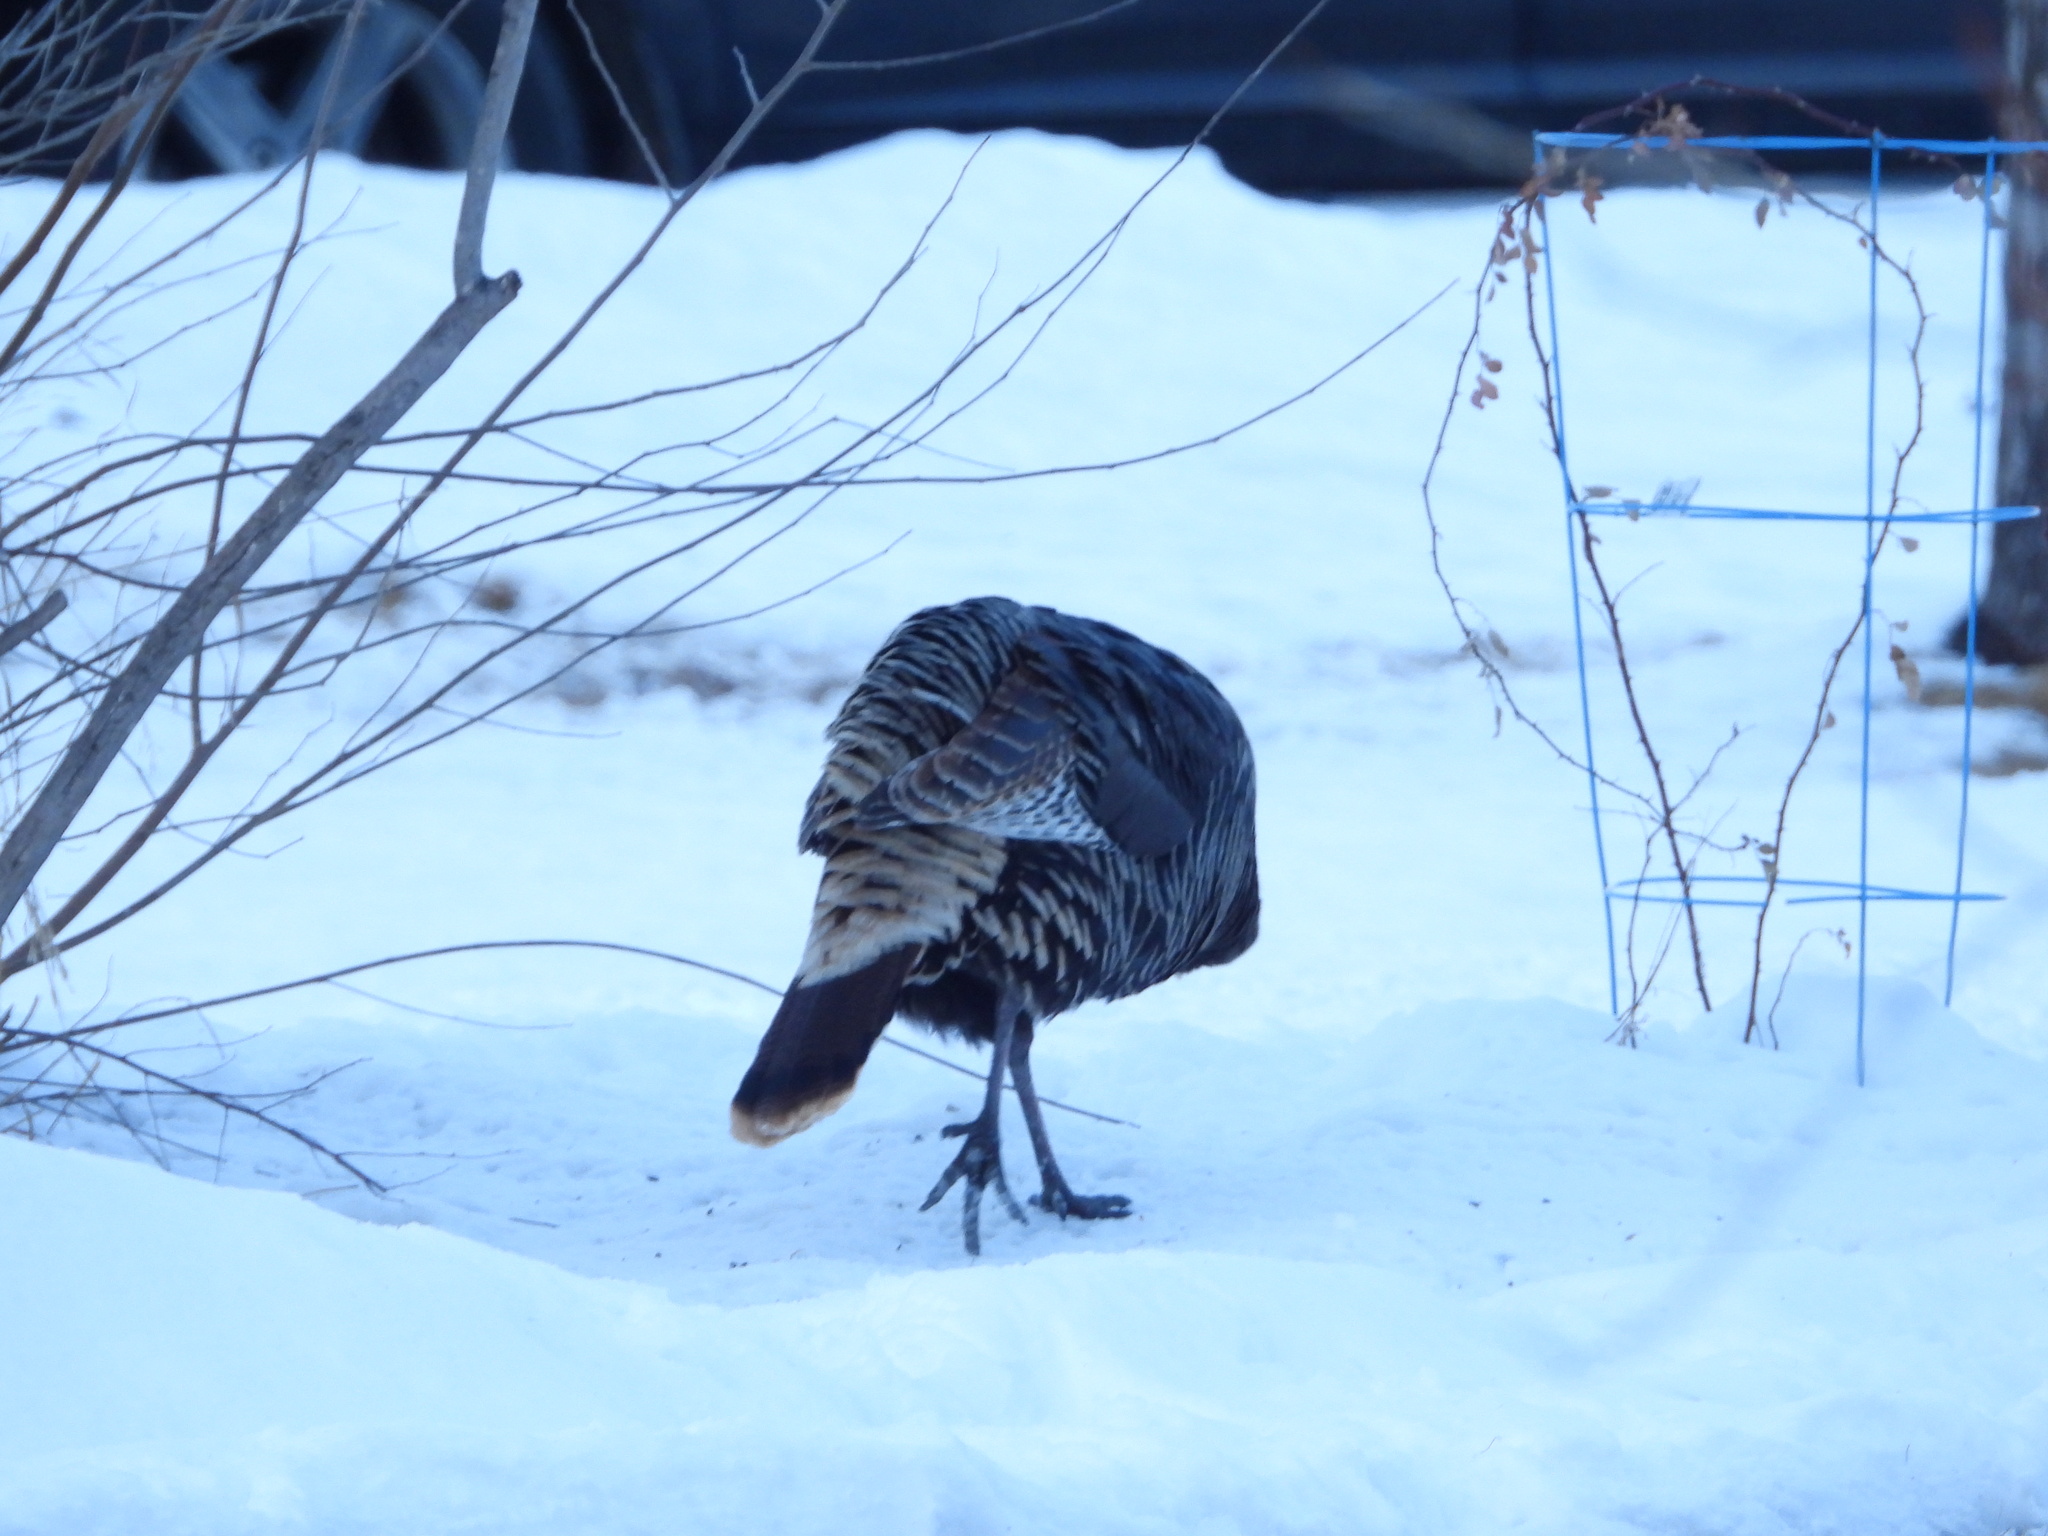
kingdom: Animalia
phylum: Chordata
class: Aves
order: Galliformes
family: Phasianidae
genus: Meleagris
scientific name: Meleagris gallopavo
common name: Wild turkey
